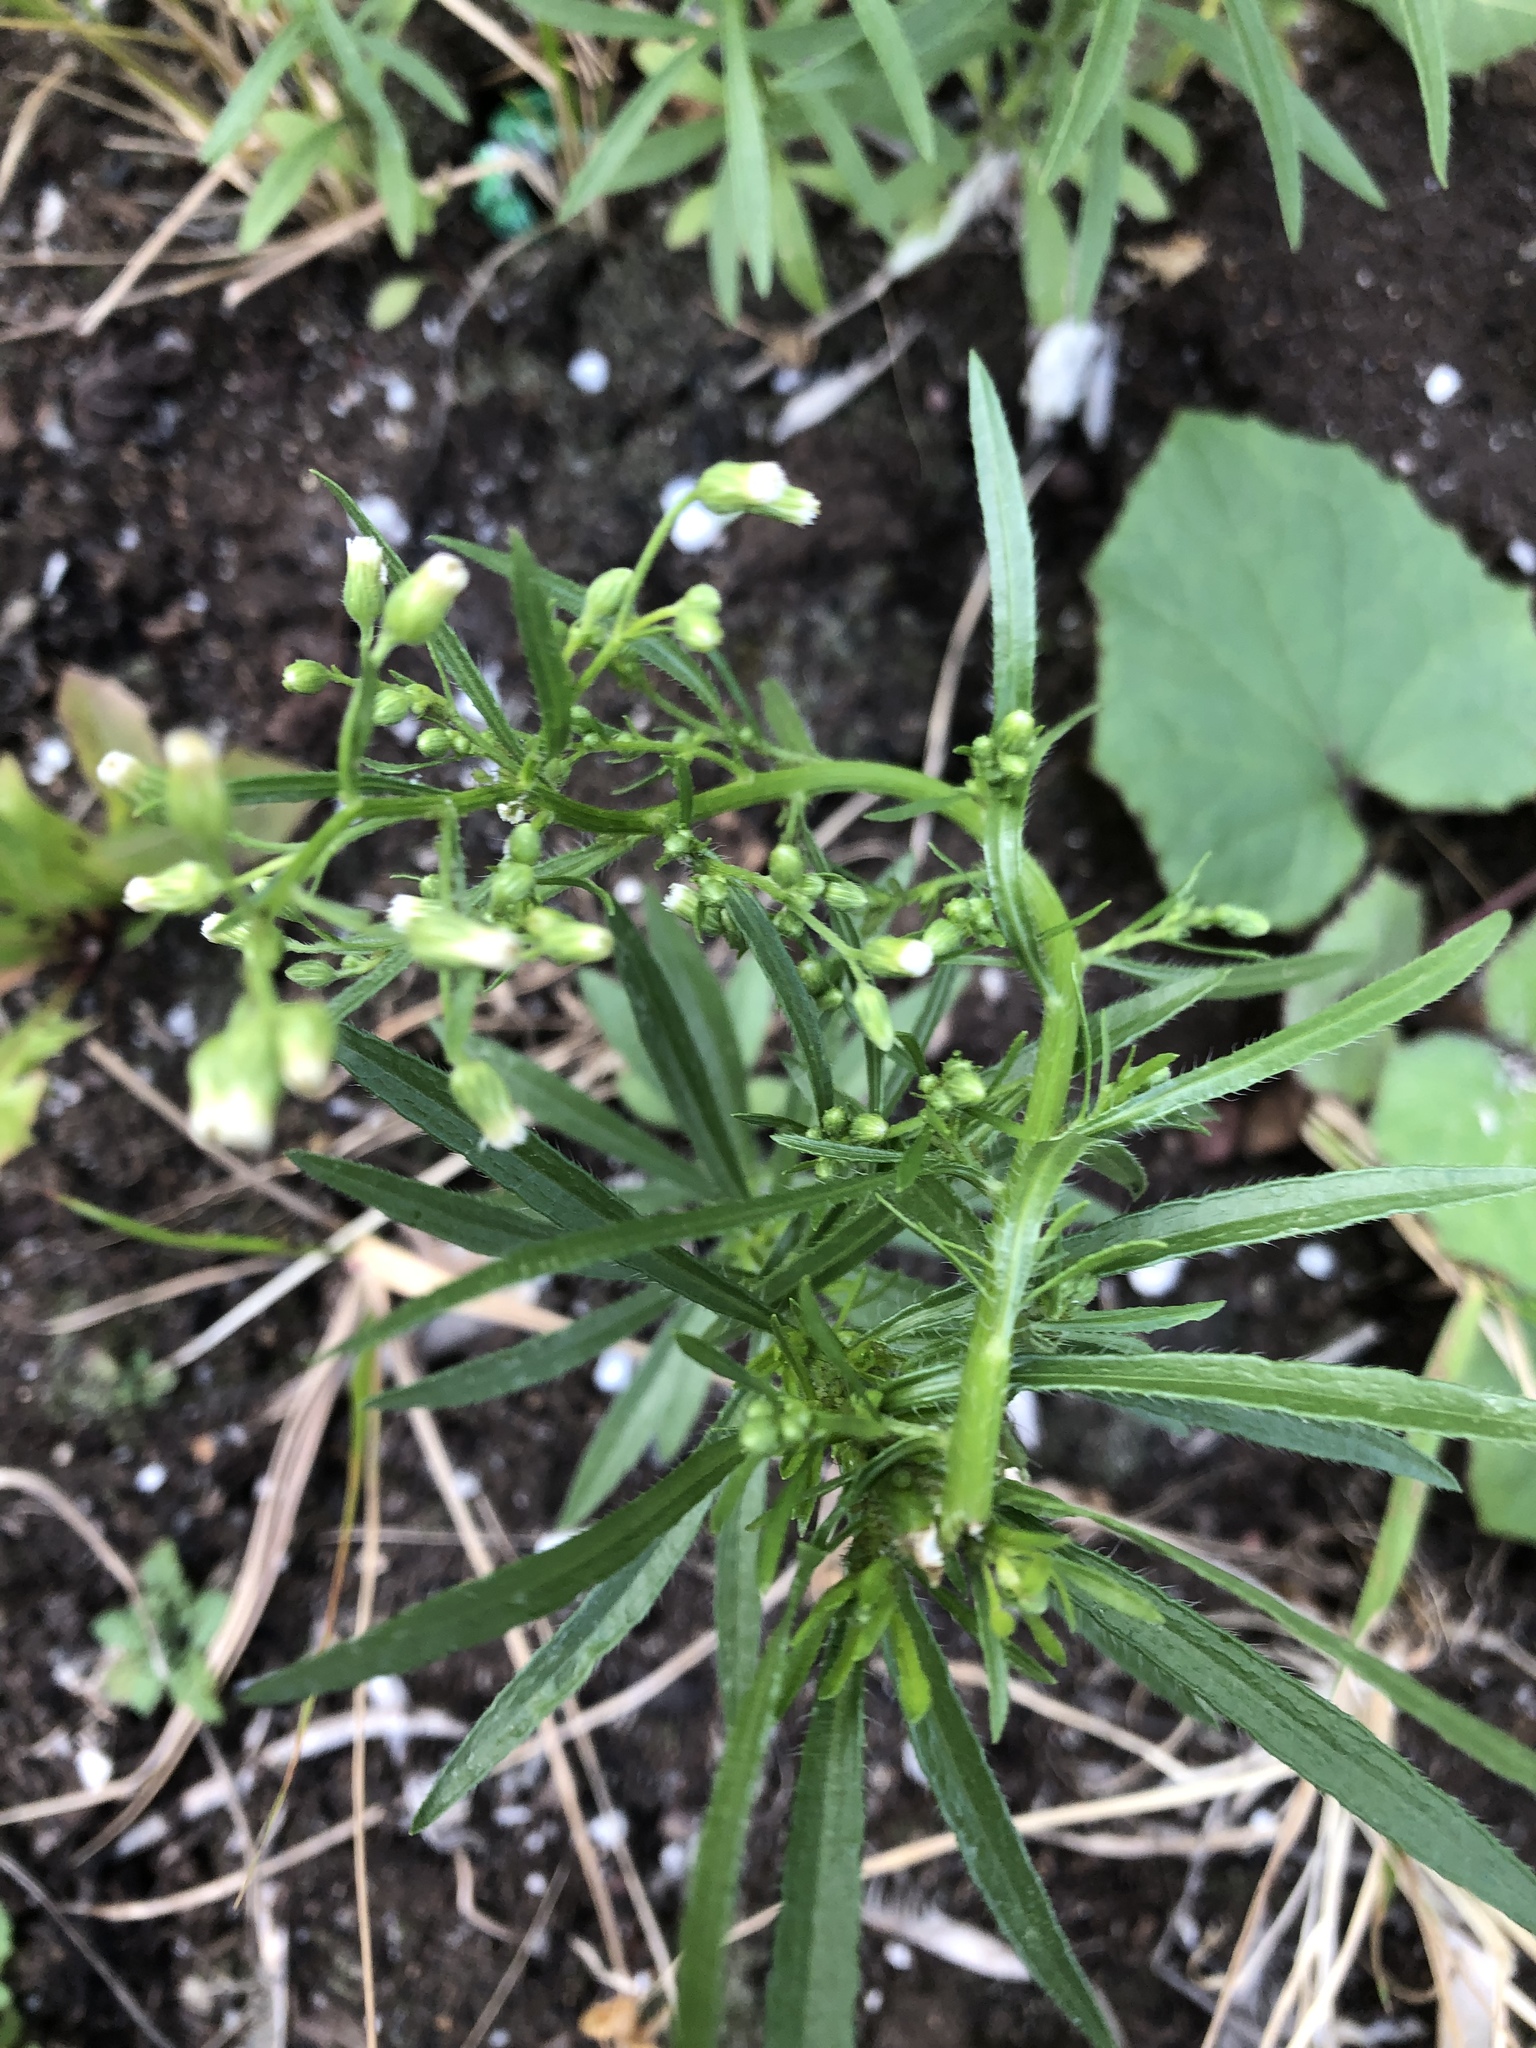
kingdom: Plantae
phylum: Tracheophyta
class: Magnoliopsida
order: Asterales
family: Asteraceae
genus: Erigeron
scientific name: Erigeron canadensis
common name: Canadian fleabane
